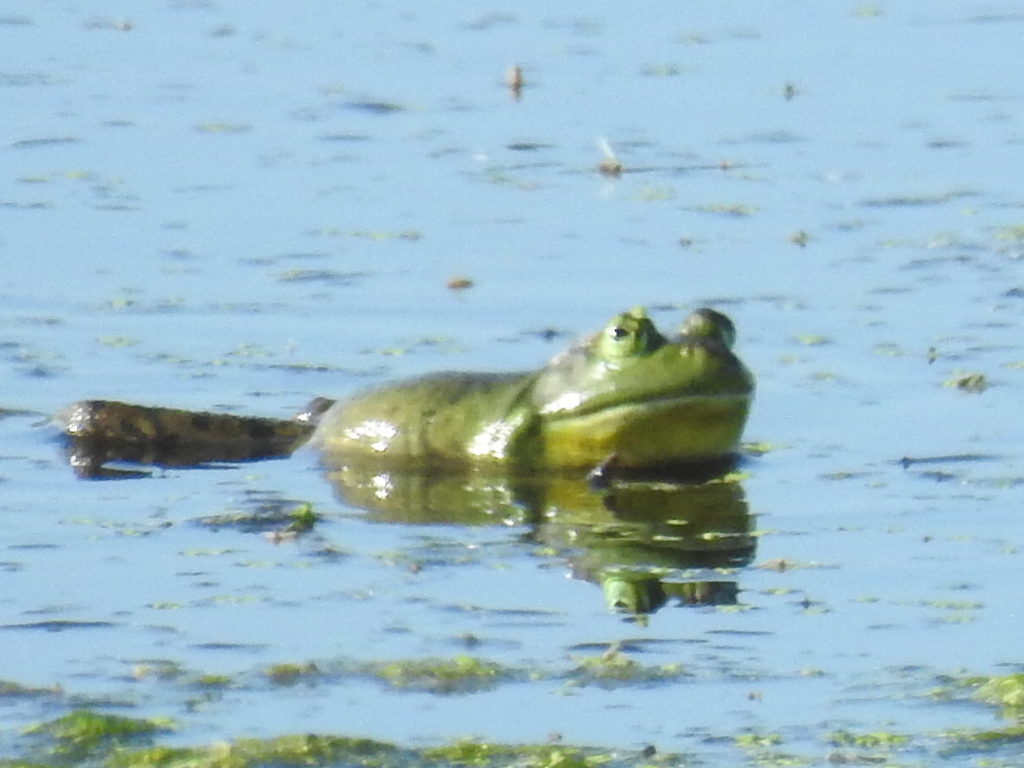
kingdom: Animalia
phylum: Chordata
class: Amphibia
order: Anura
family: Ranidae
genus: Lithobates
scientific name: Lithobates catesbeianus
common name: American bullfrog
